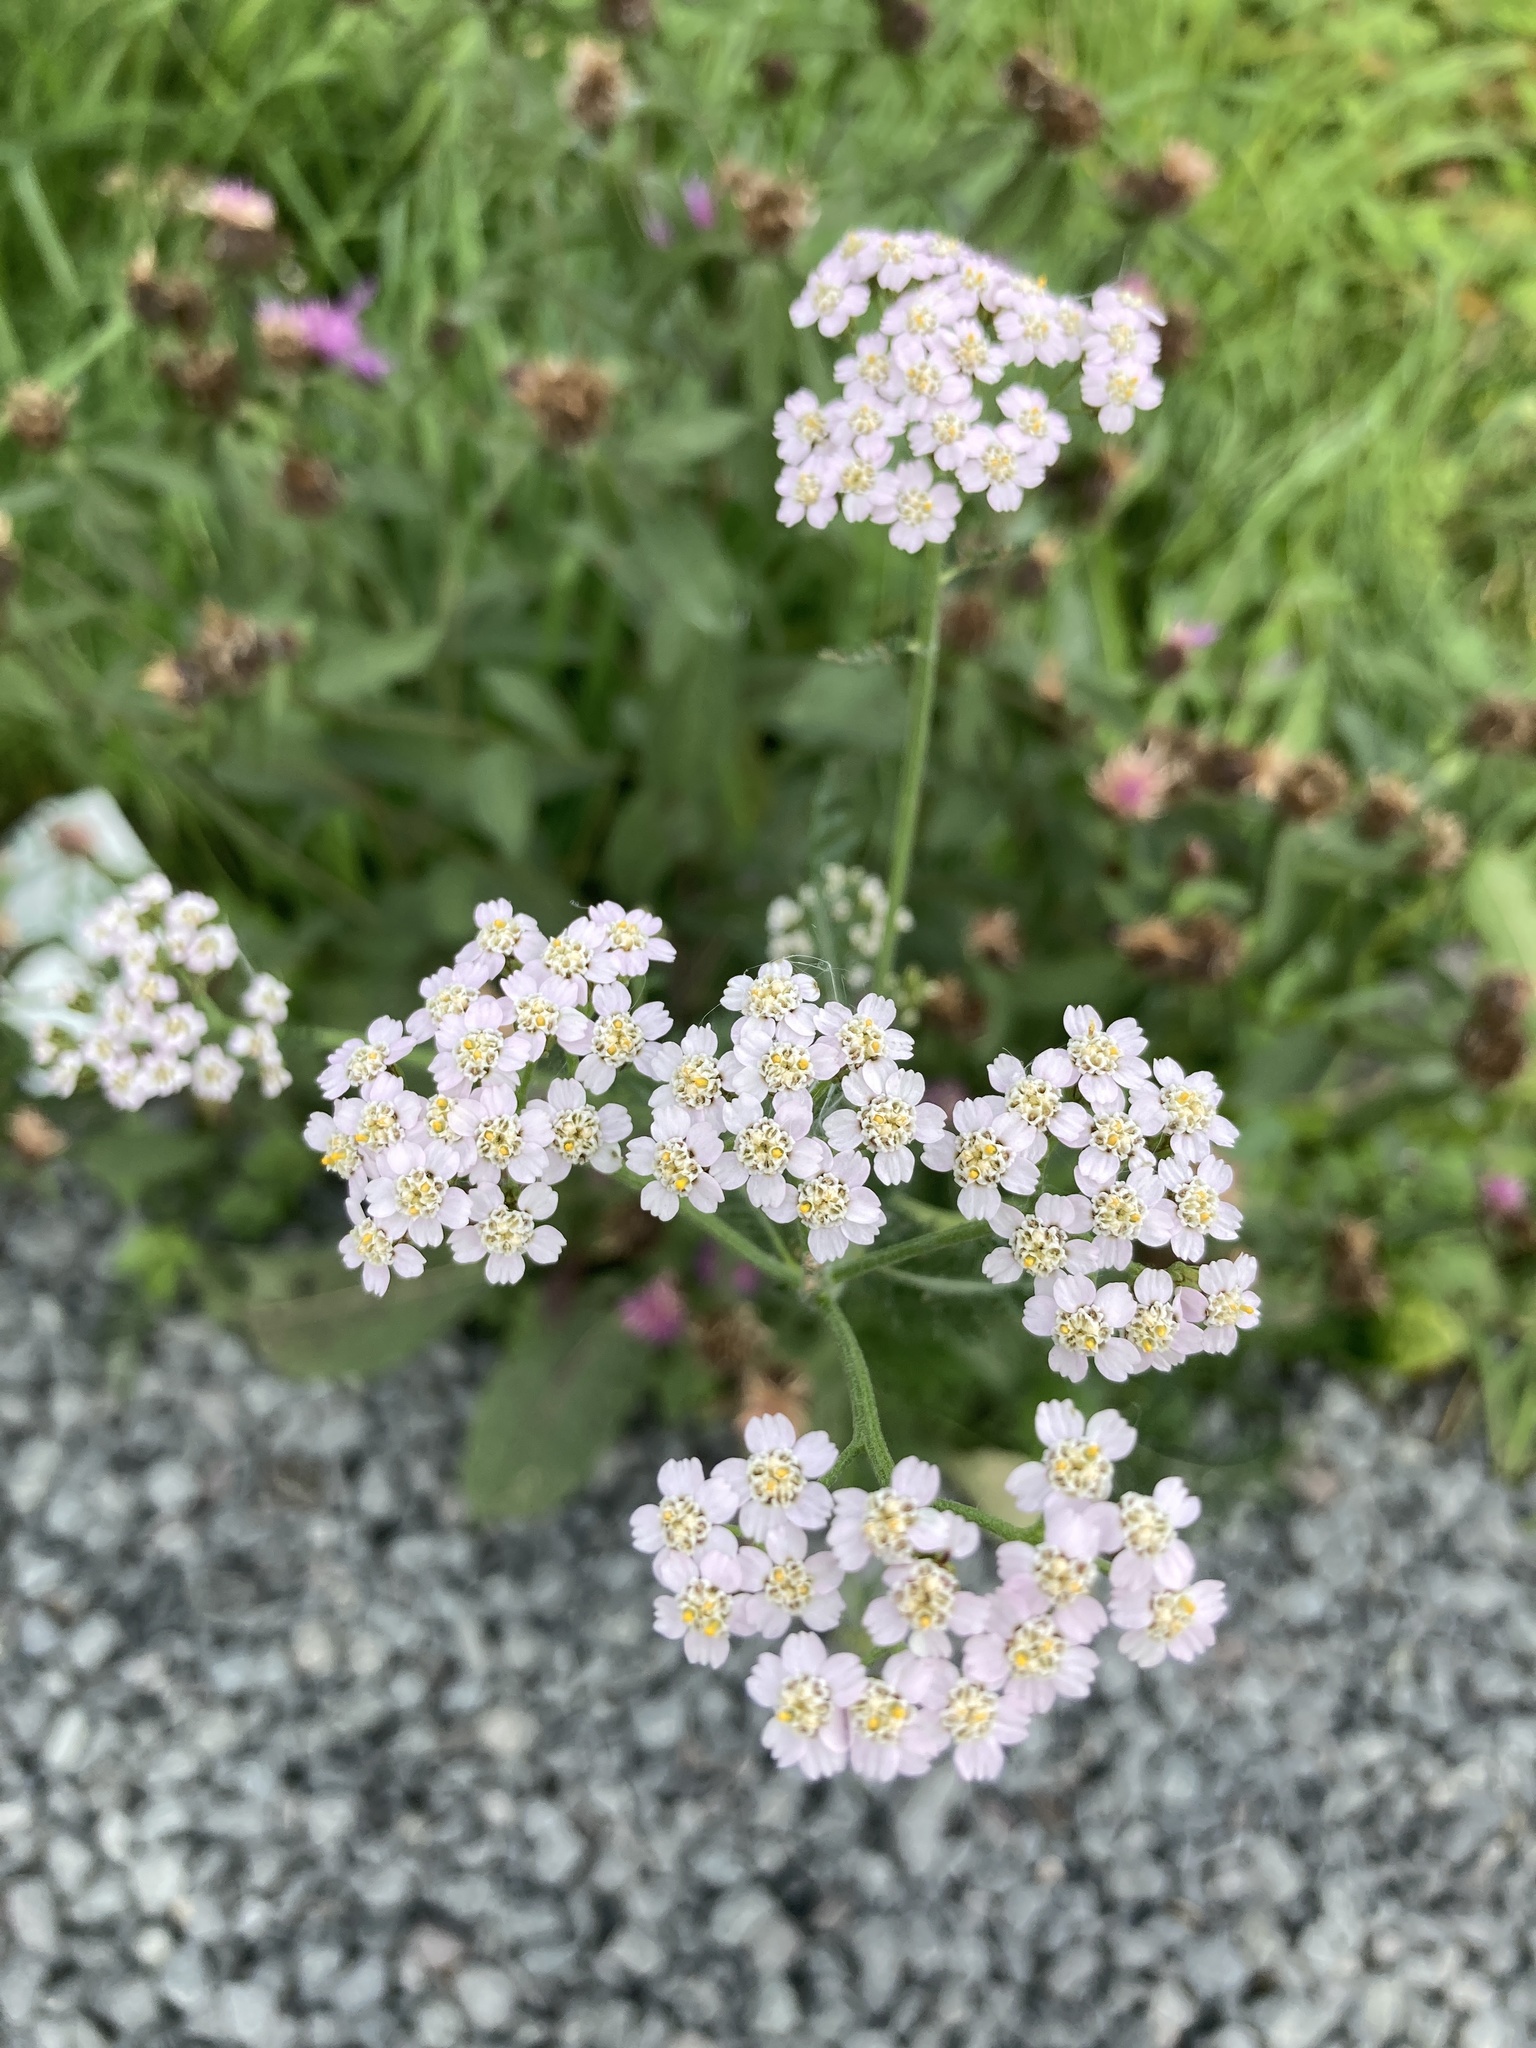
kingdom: Plantae
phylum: Tracheophyta
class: Magnoliopsida
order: Asterales
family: Asteraceae
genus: Achillea
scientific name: Achillea millefolium
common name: Yarrow
